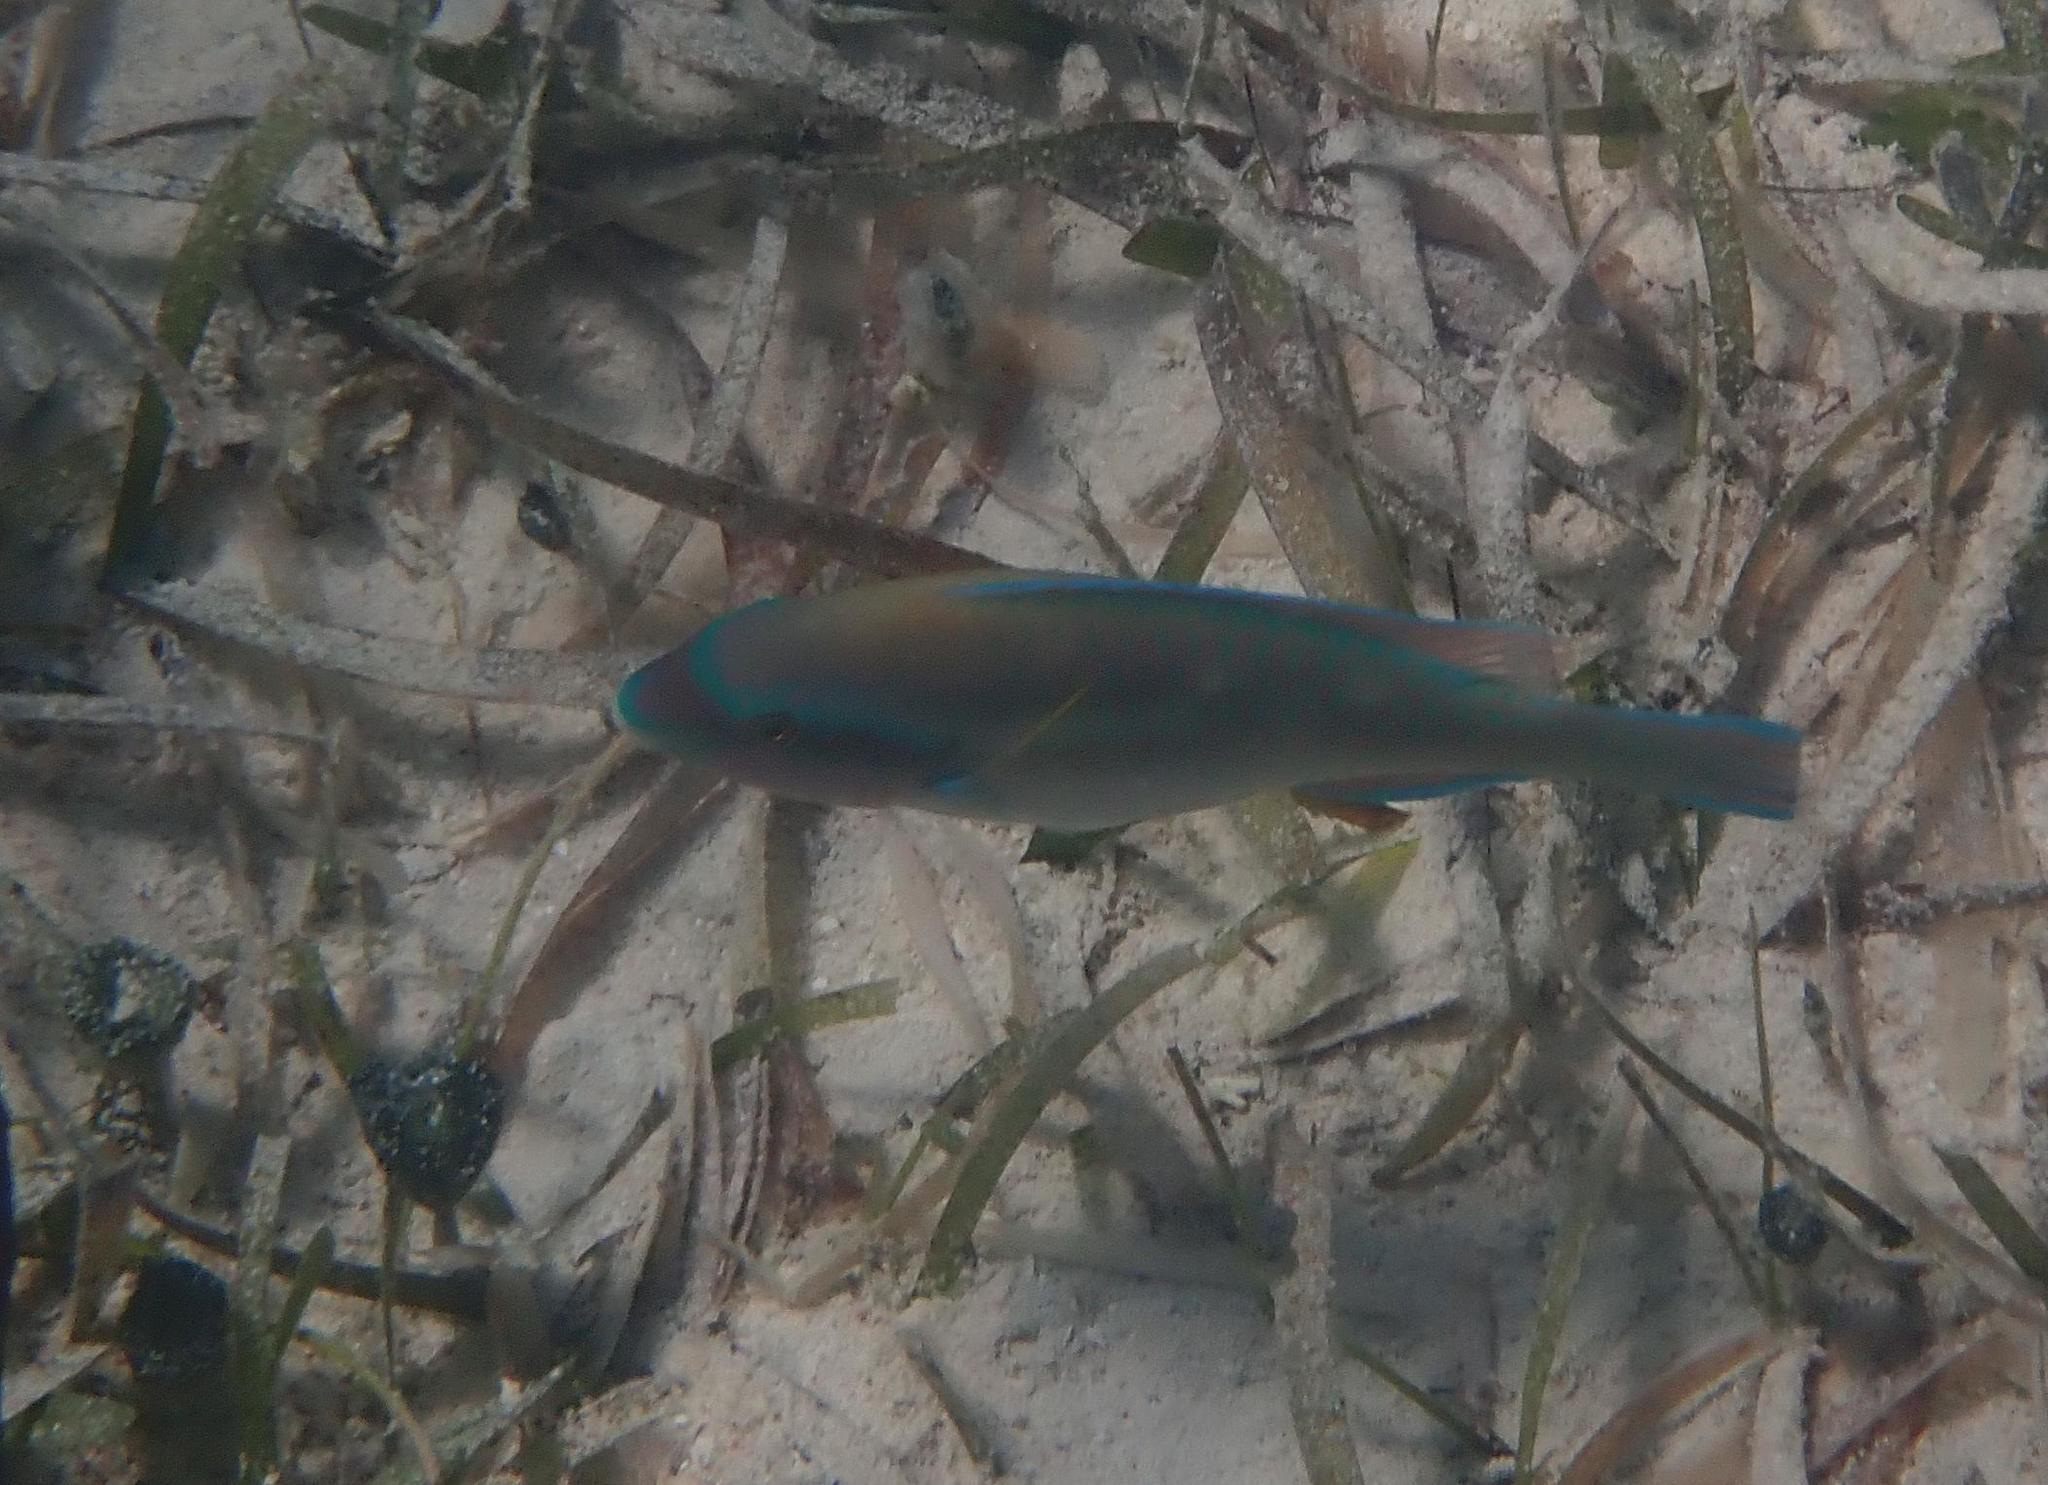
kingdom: Animalia
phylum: Chordata
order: Perciformes
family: Scaridae
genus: Scarus
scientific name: Scarus iseri
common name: Striped parrotfish
